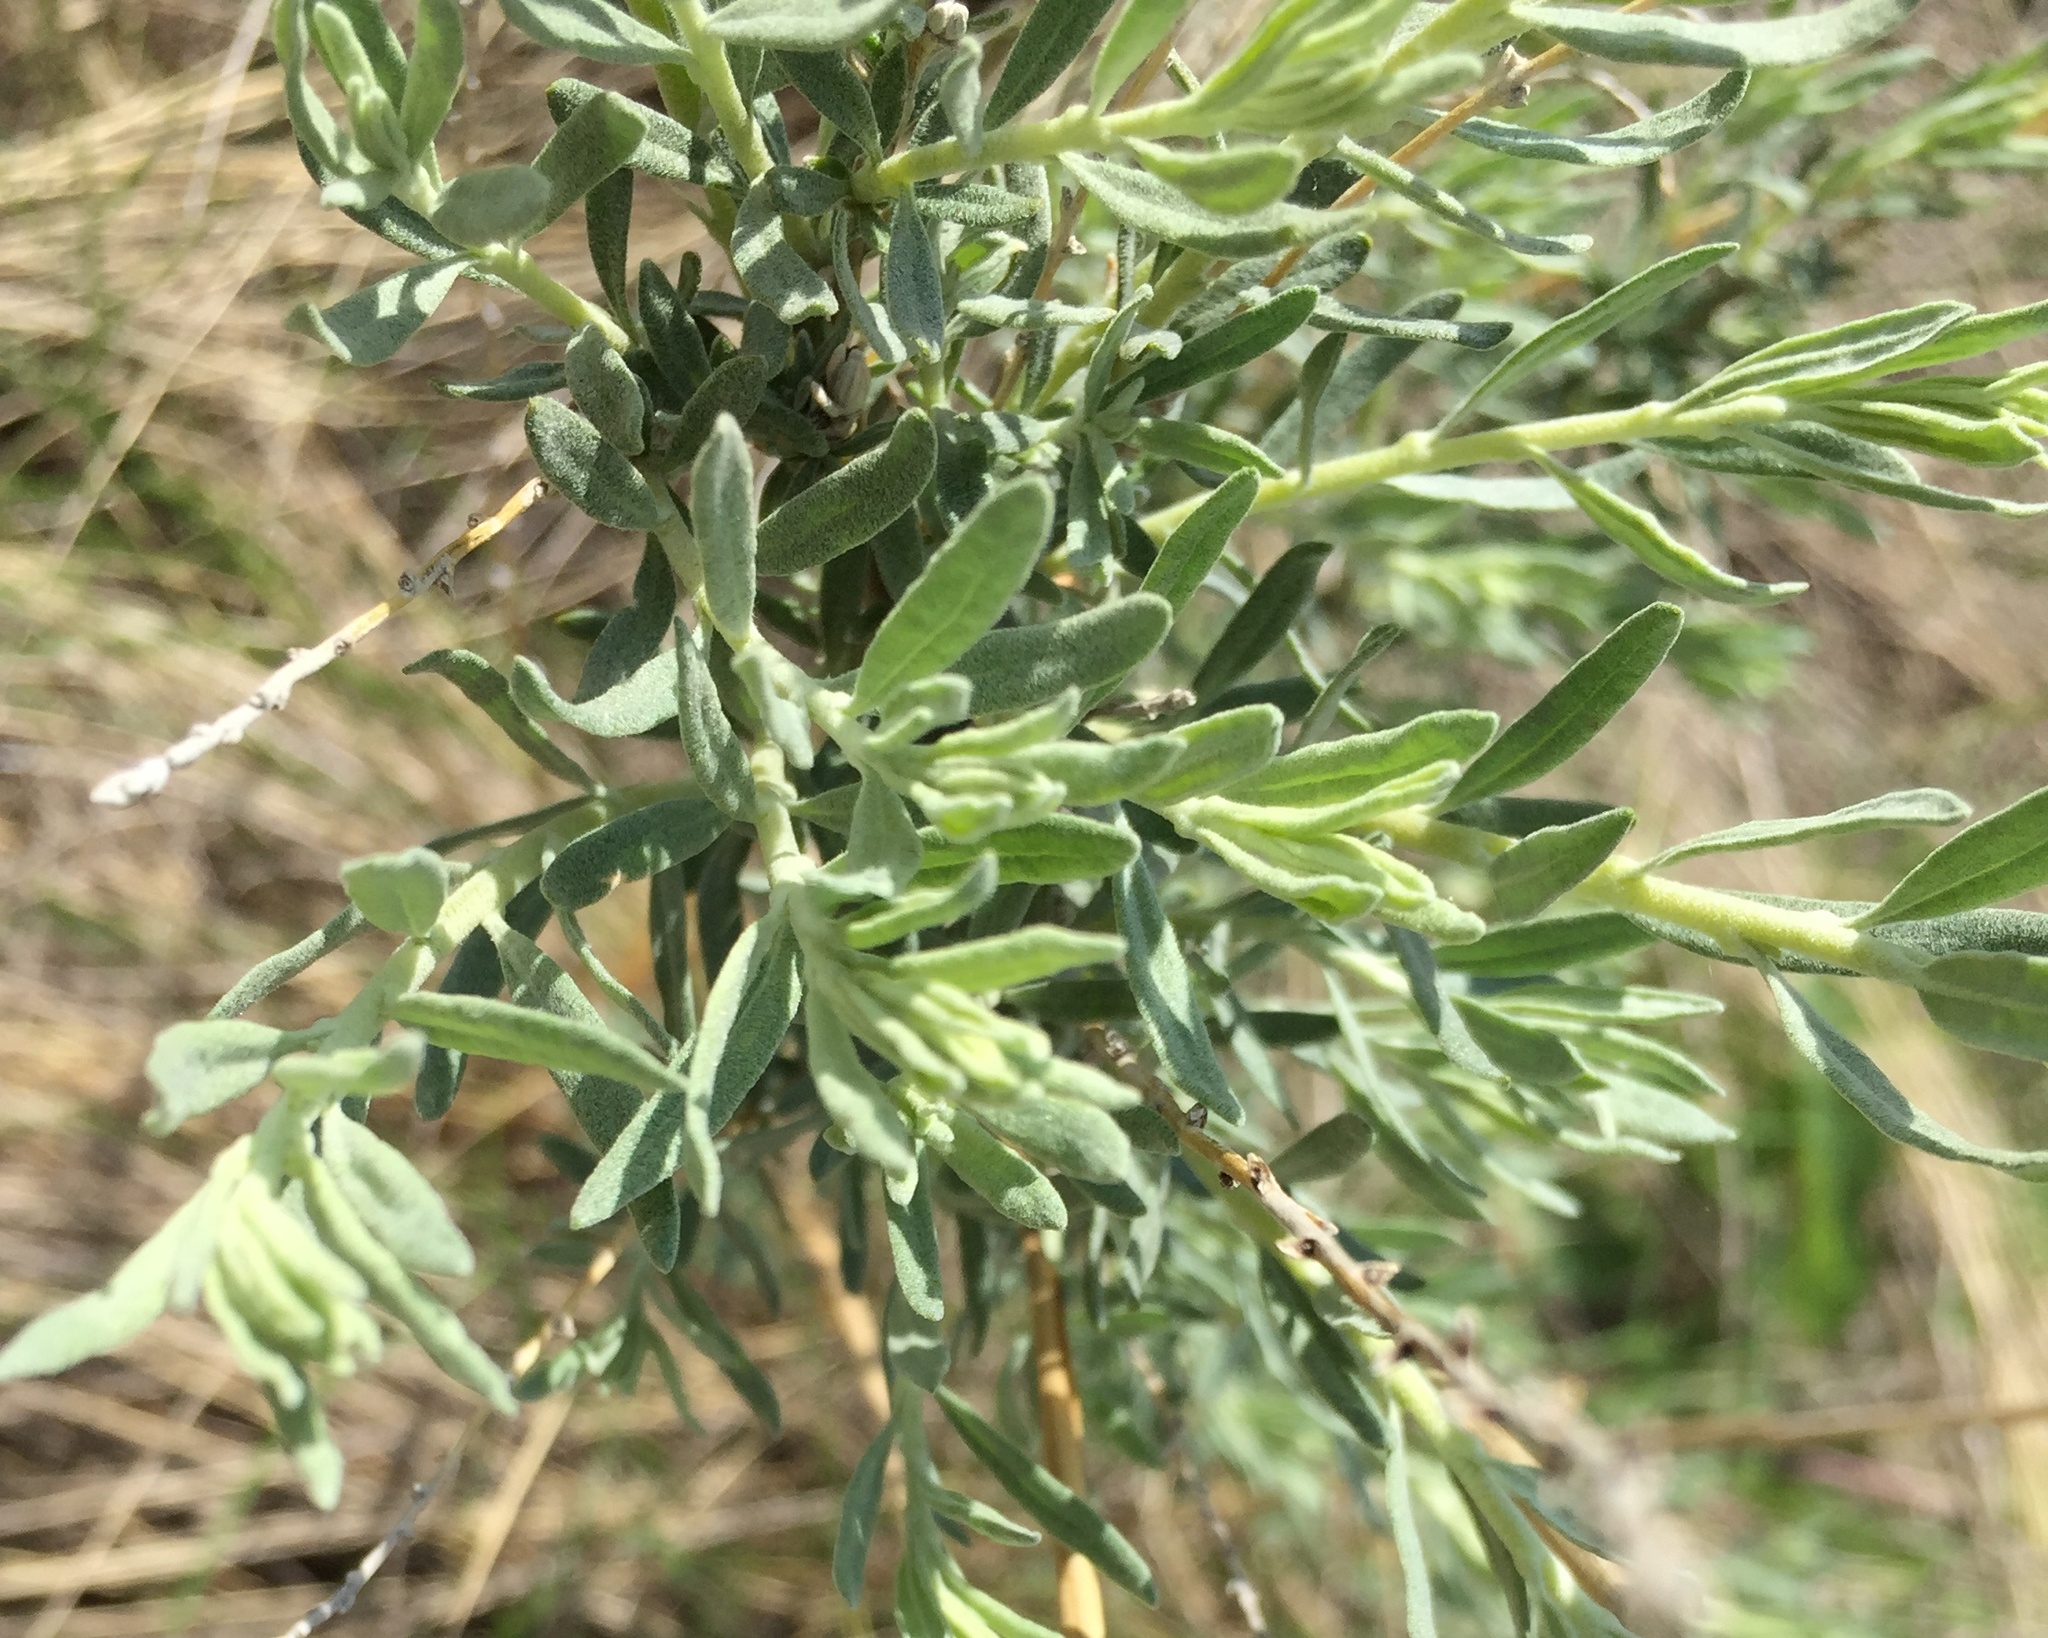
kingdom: Plantae
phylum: Tracheophyta
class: Magnoliopsida
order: Caryophyllales
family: Amaranthaceae
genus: Krascheninnikovia
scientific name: Krascheninnikovia ceratoides
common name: Pamirian winterfat
